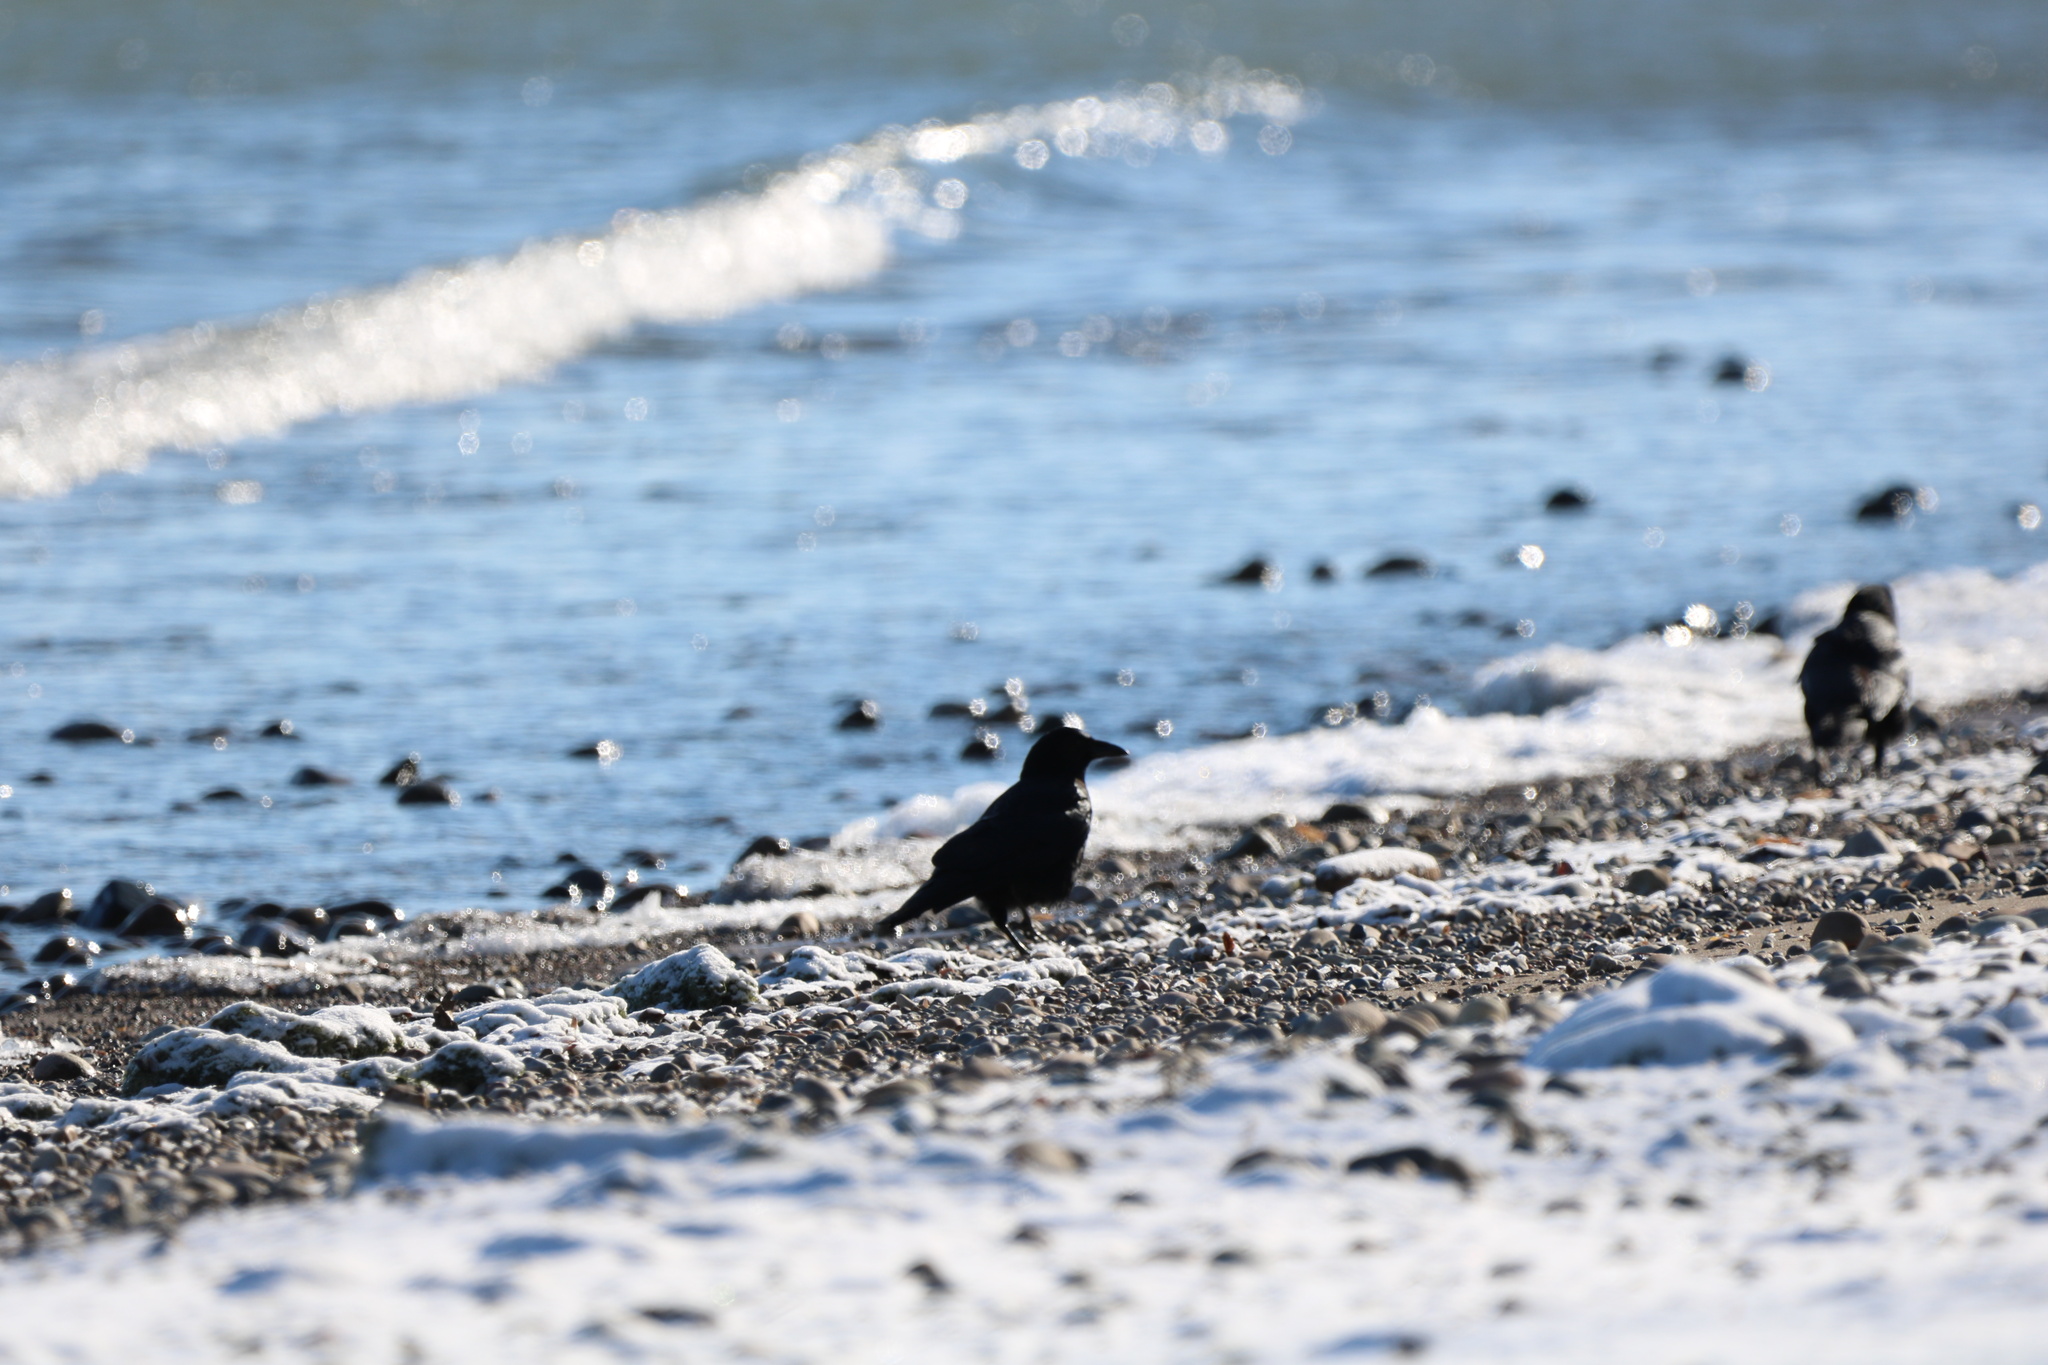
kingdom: Animalia
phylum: Chordata
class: Aves
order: Passeriformes
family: Corvidae
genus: Corvus
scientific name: Corvus brachyrhynchos
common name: American crow
